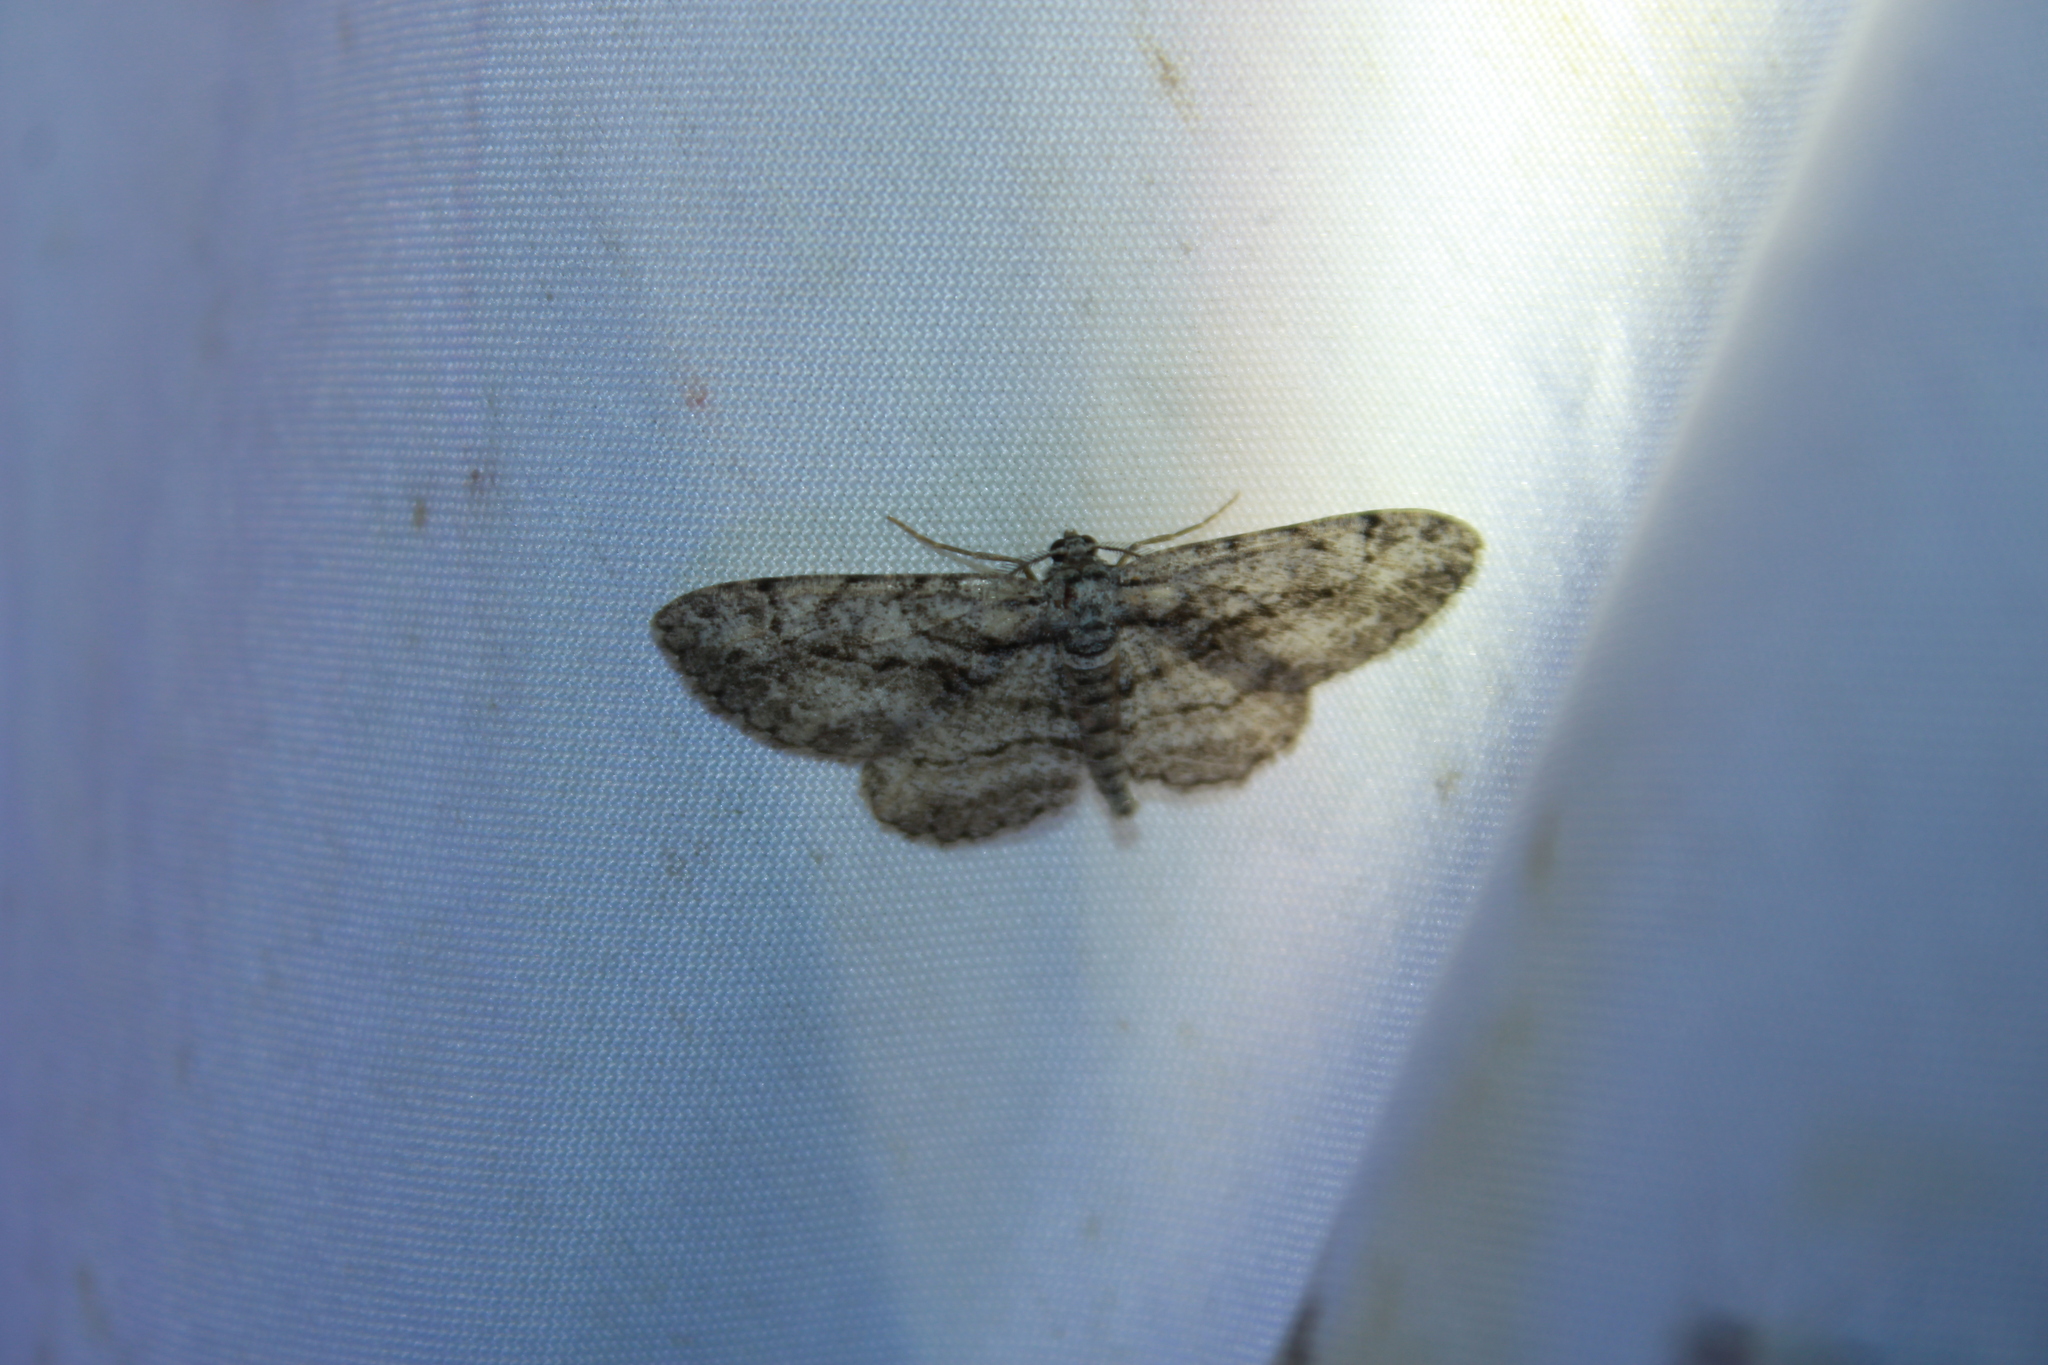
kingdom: Animalia
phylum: Arthropoda
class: Insecta
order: Lepidoptera
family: Geometridae
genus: Anavitrinella
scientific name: Anavitrinella pampinaria
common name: Common gray
